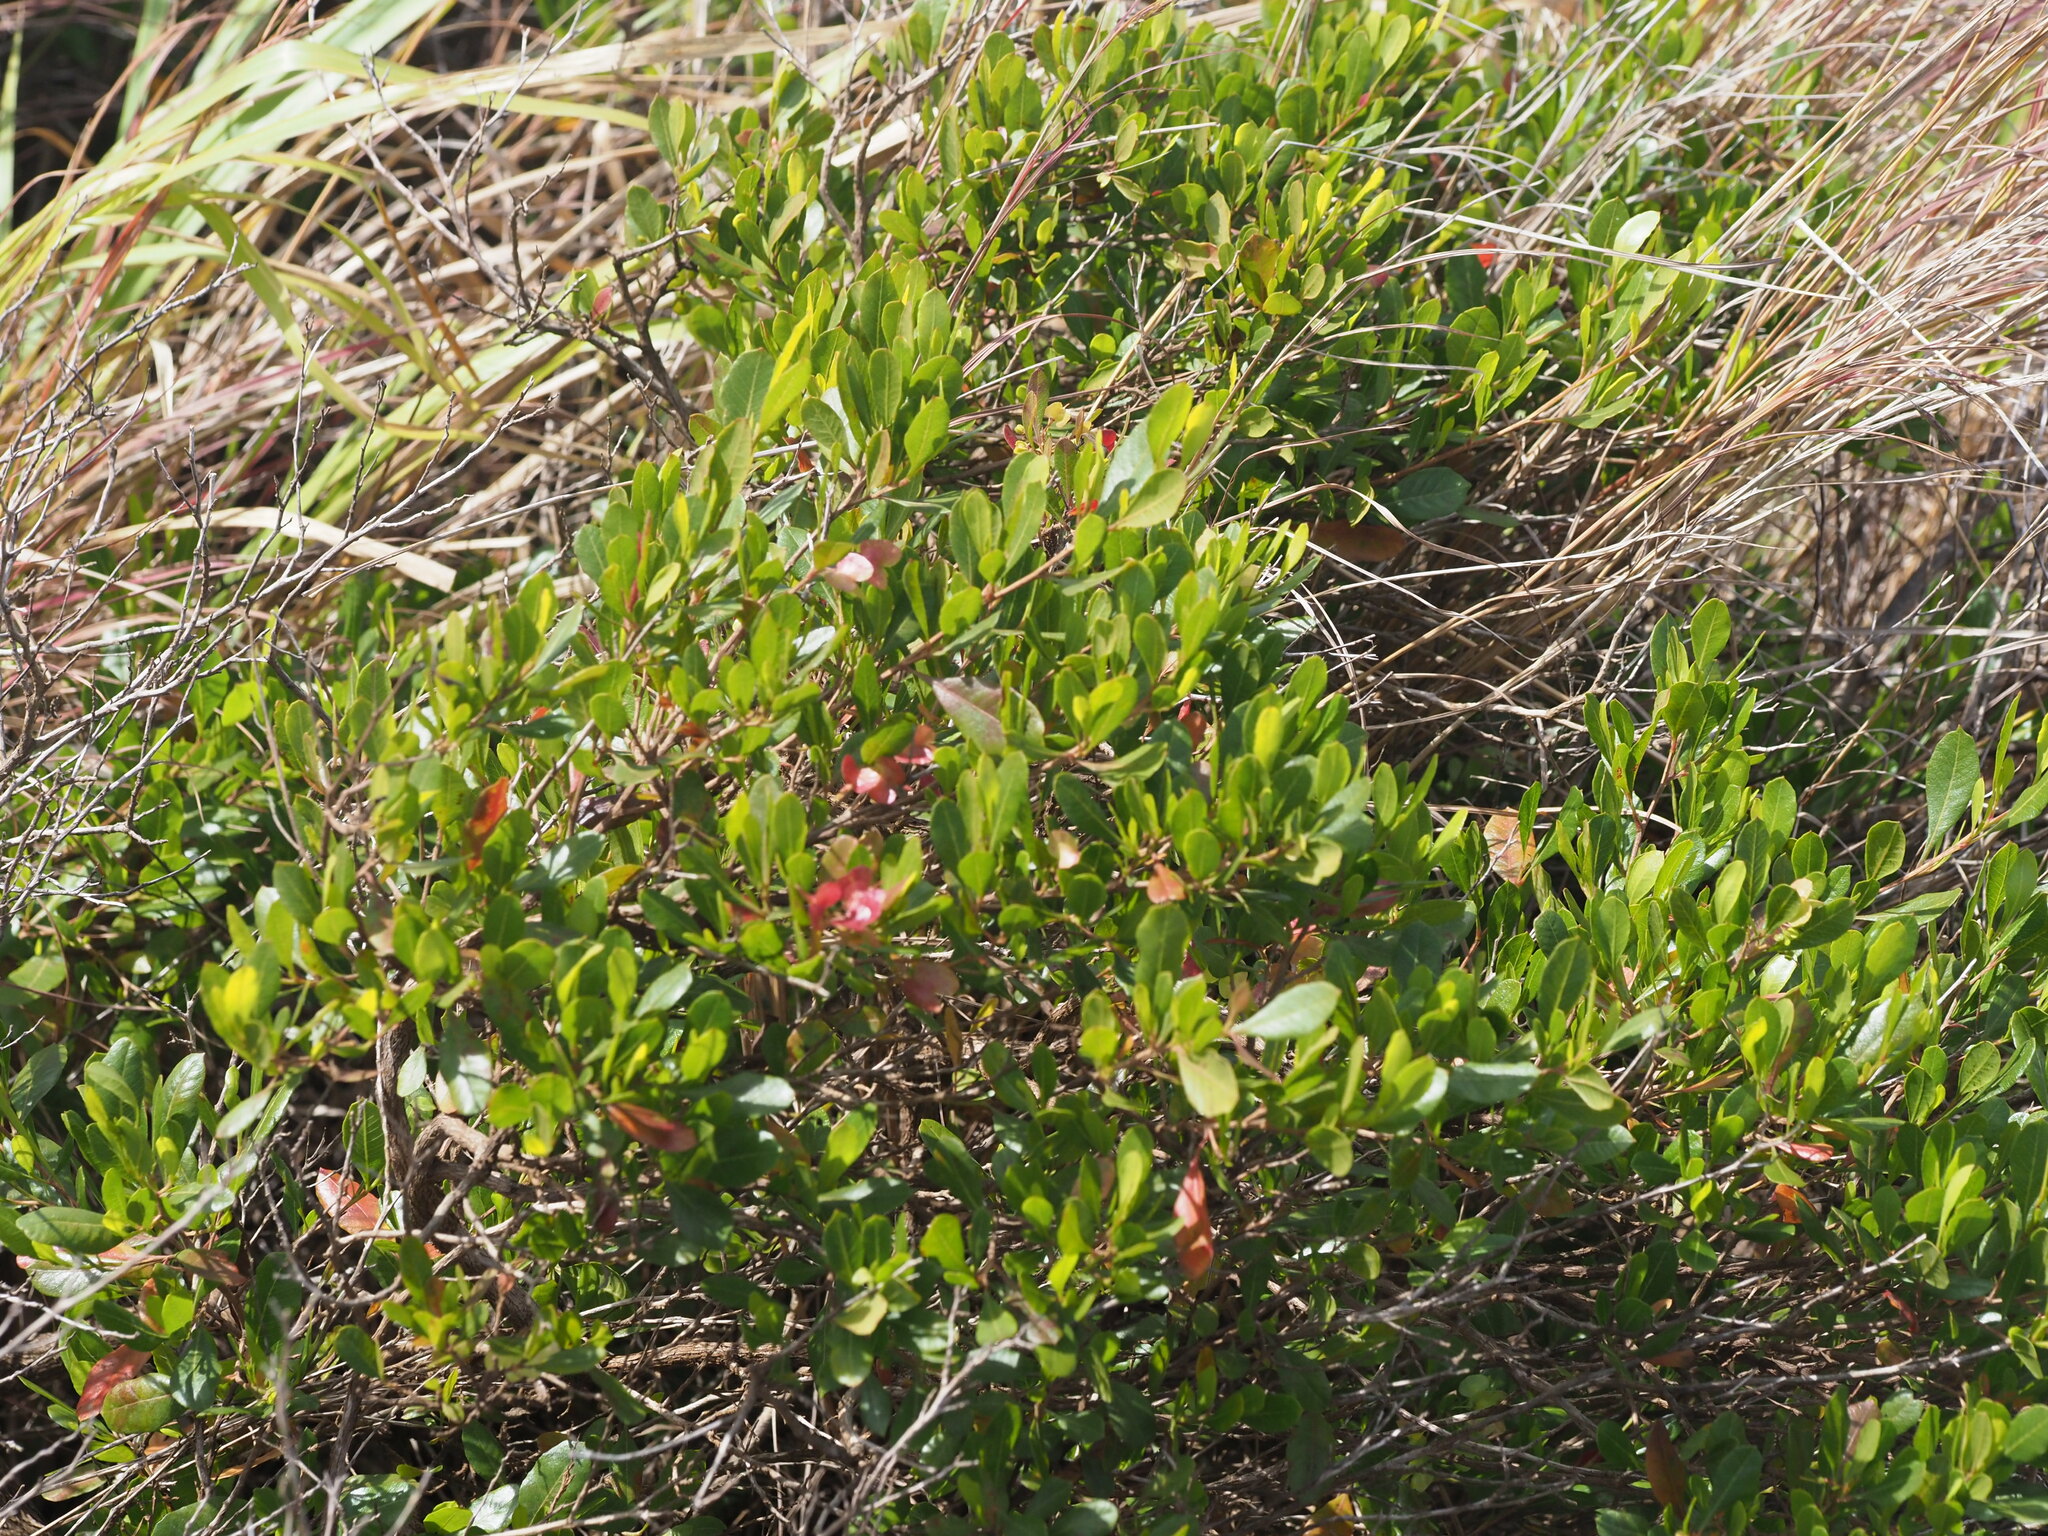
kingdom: Plantae
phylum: Tracheophyta
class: Magnoliopsida
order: Sapindales
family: Sapindaceae
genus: Dodonaea
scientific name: Dodonaea viscosa
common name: Hopbush
